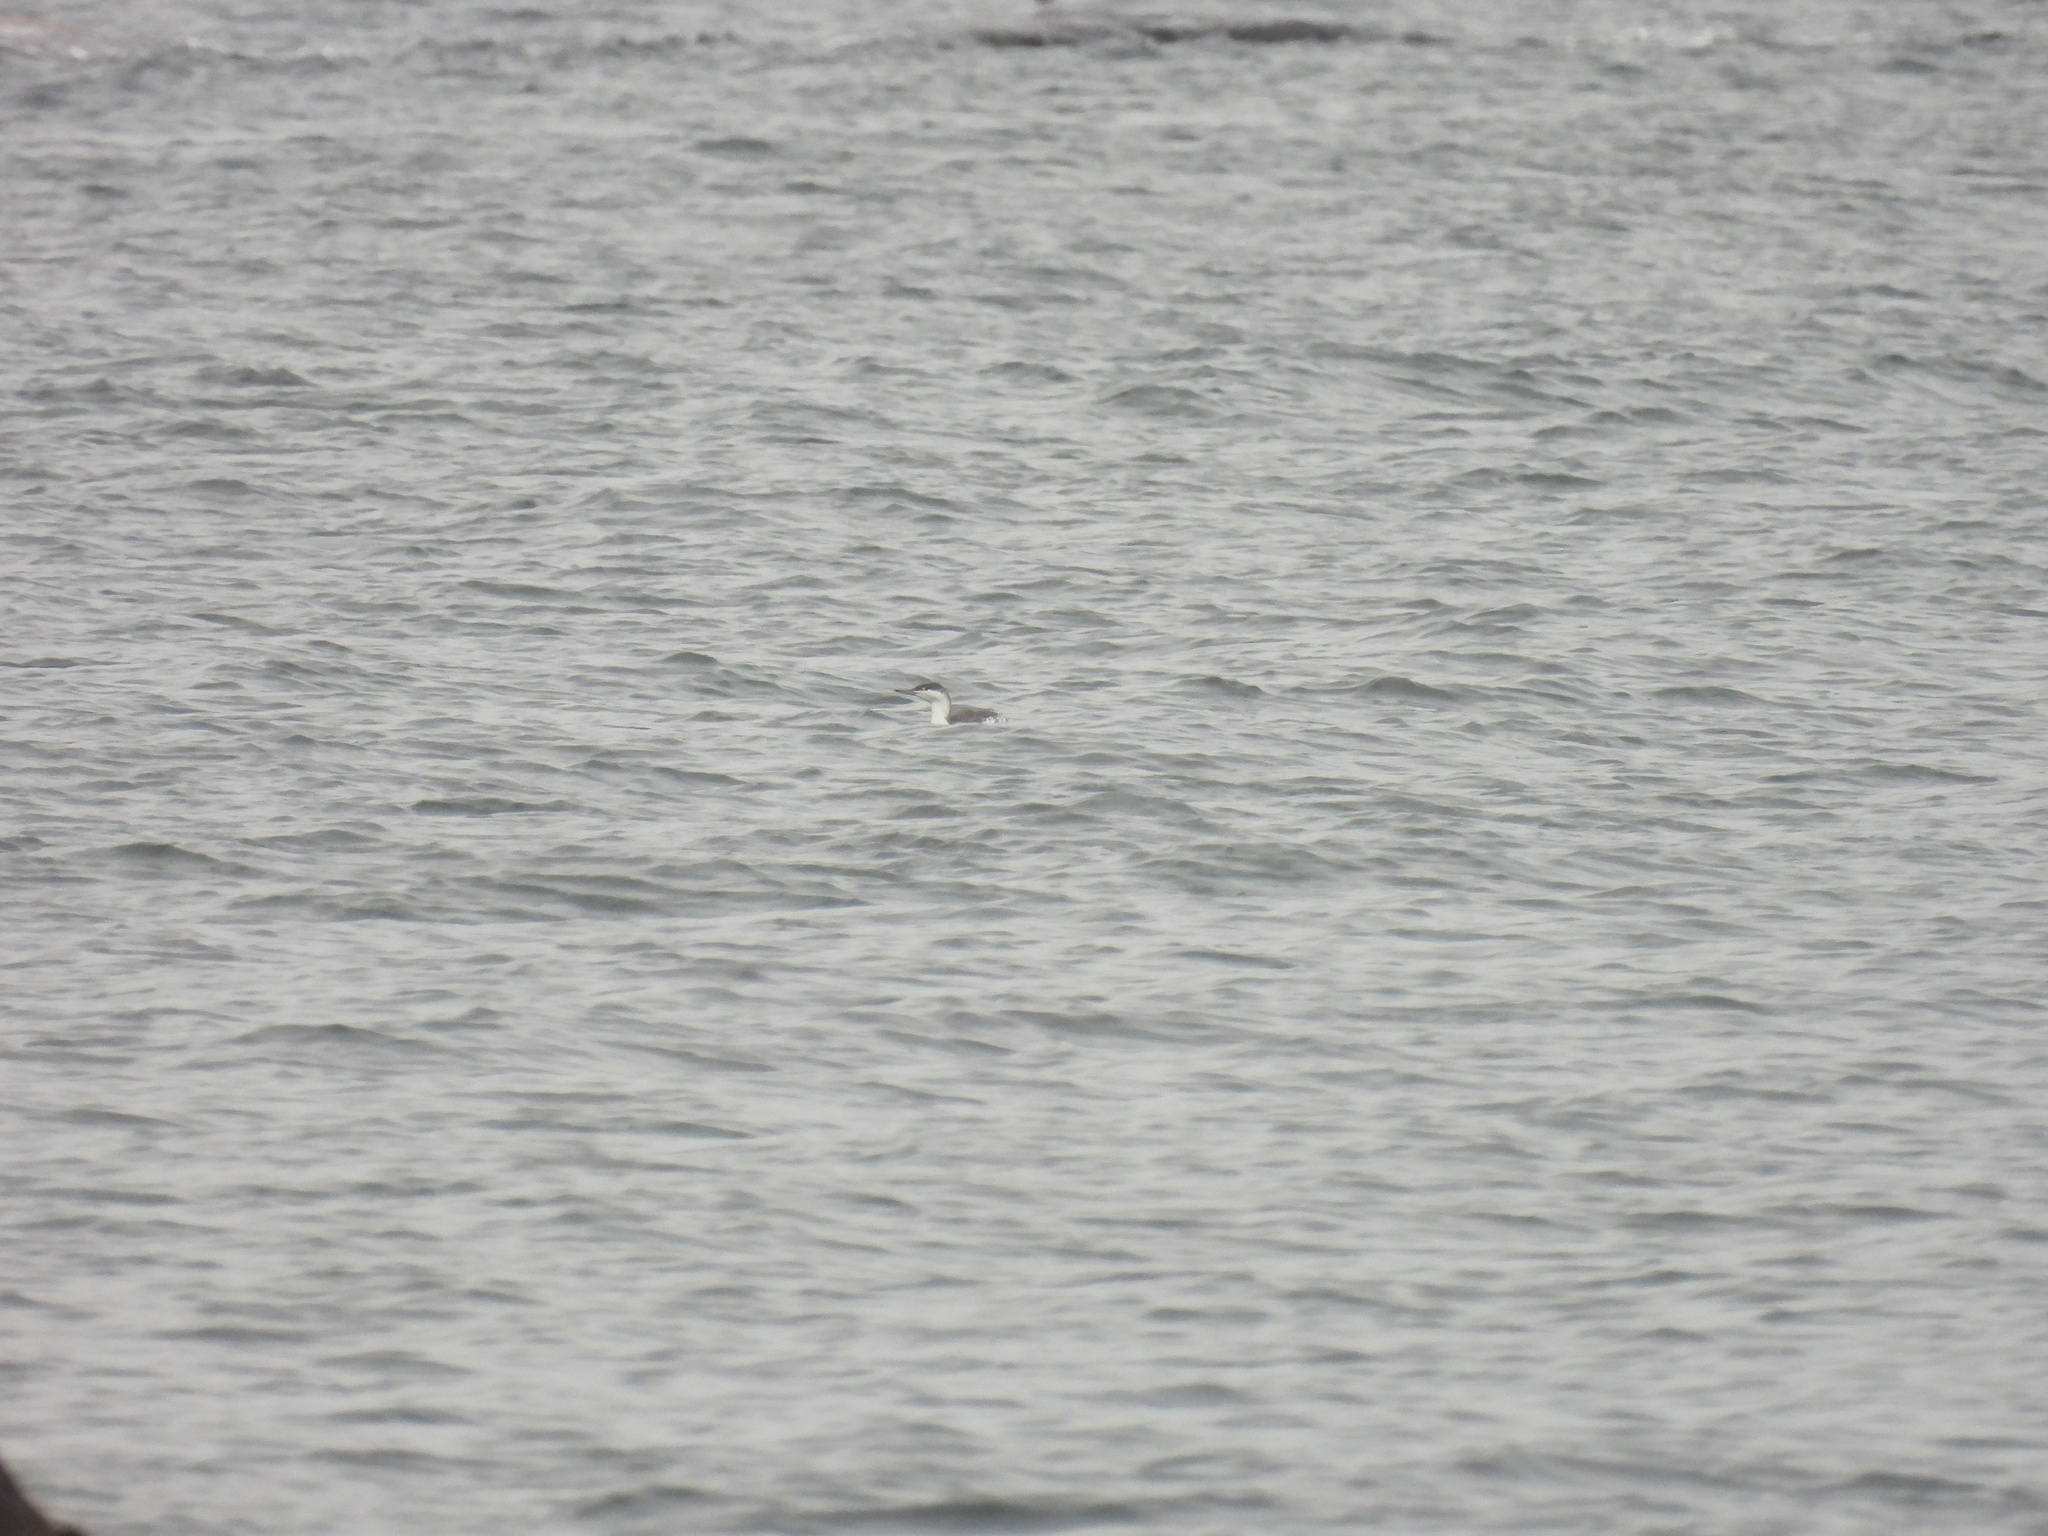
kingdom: Animalia
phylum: Chordata
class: Aves
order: Gaviiformes
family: Gaviidae
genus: Gavia
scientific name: Gavia stellata
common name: Red-throated loon
